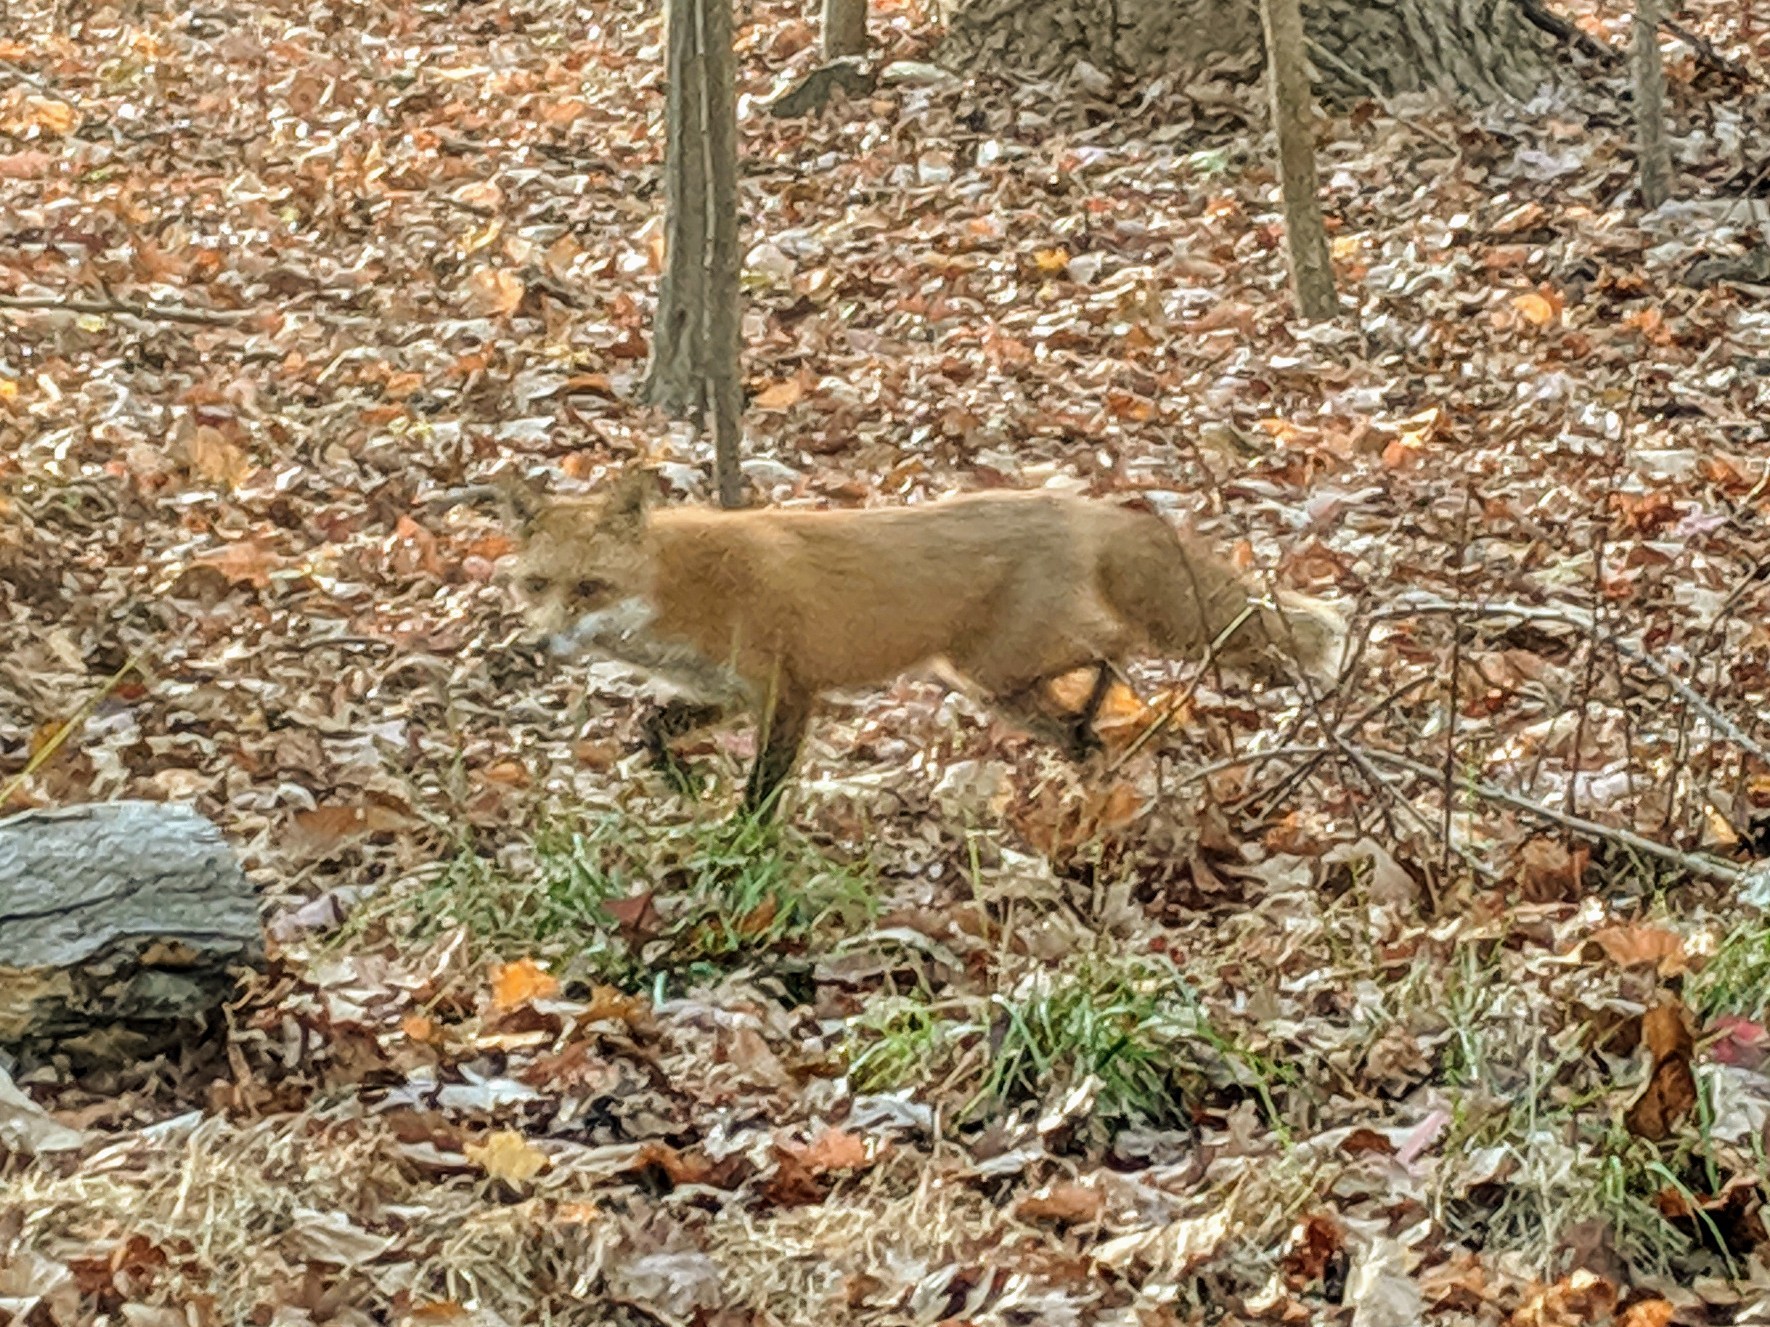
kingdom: Animalia
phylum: Chordata
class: Mammalia
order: Carnivora
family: Canidae
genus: Vulpes
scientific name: Vulpes vulpes
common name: Red fox
